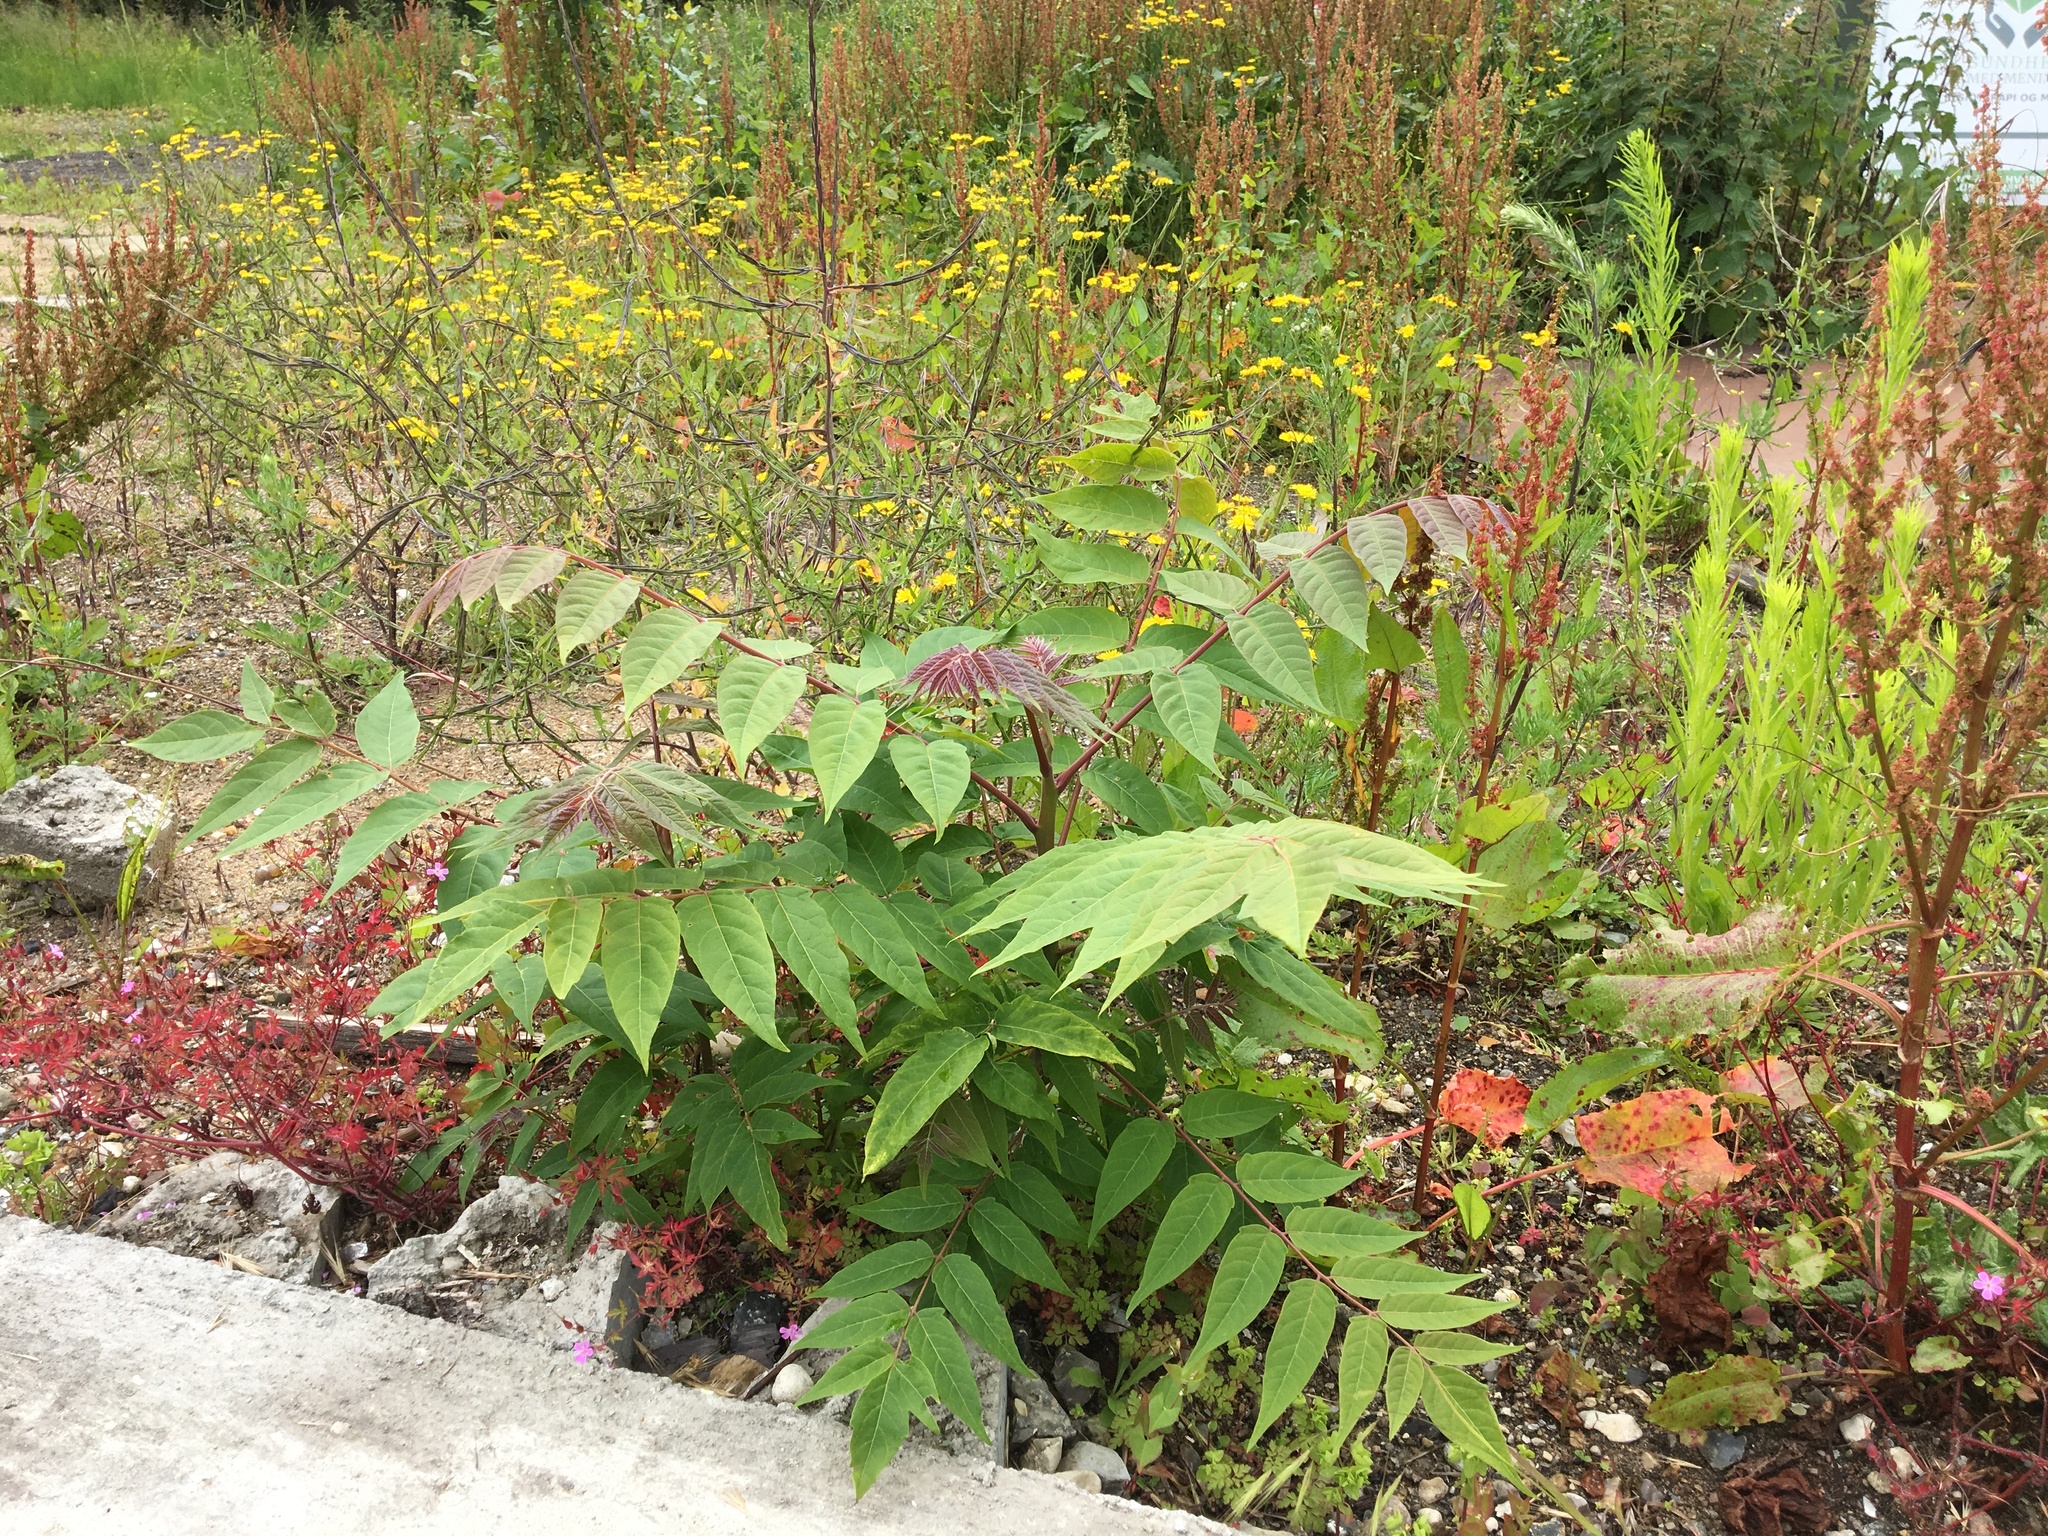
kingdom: Plantae
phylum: Tracheophyta
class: Magnoliopsida
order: Sapindales
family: Simaroubaceae
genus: Ailanthus
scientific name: Ailanthus altissima
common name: Tree-of-heaven
